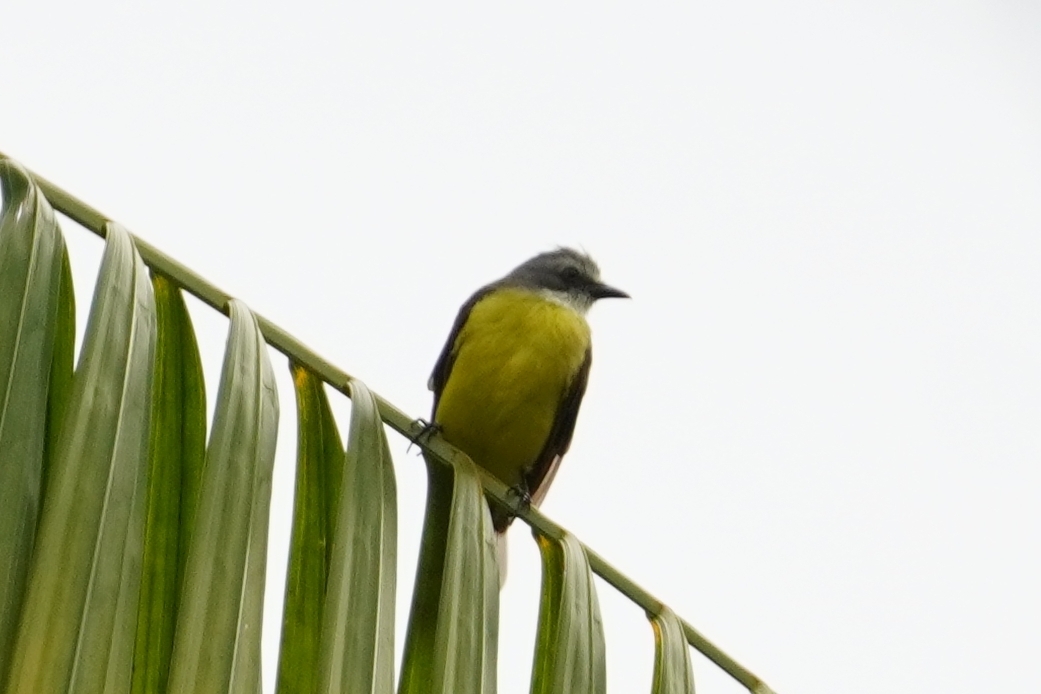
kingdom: Animalia
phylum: Chordata
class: Aves
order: Passeriformes
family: Tyrannidae
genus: Myiozetetes
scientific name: Myiozetetes granadensis
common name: Gray-capped flycatcher
